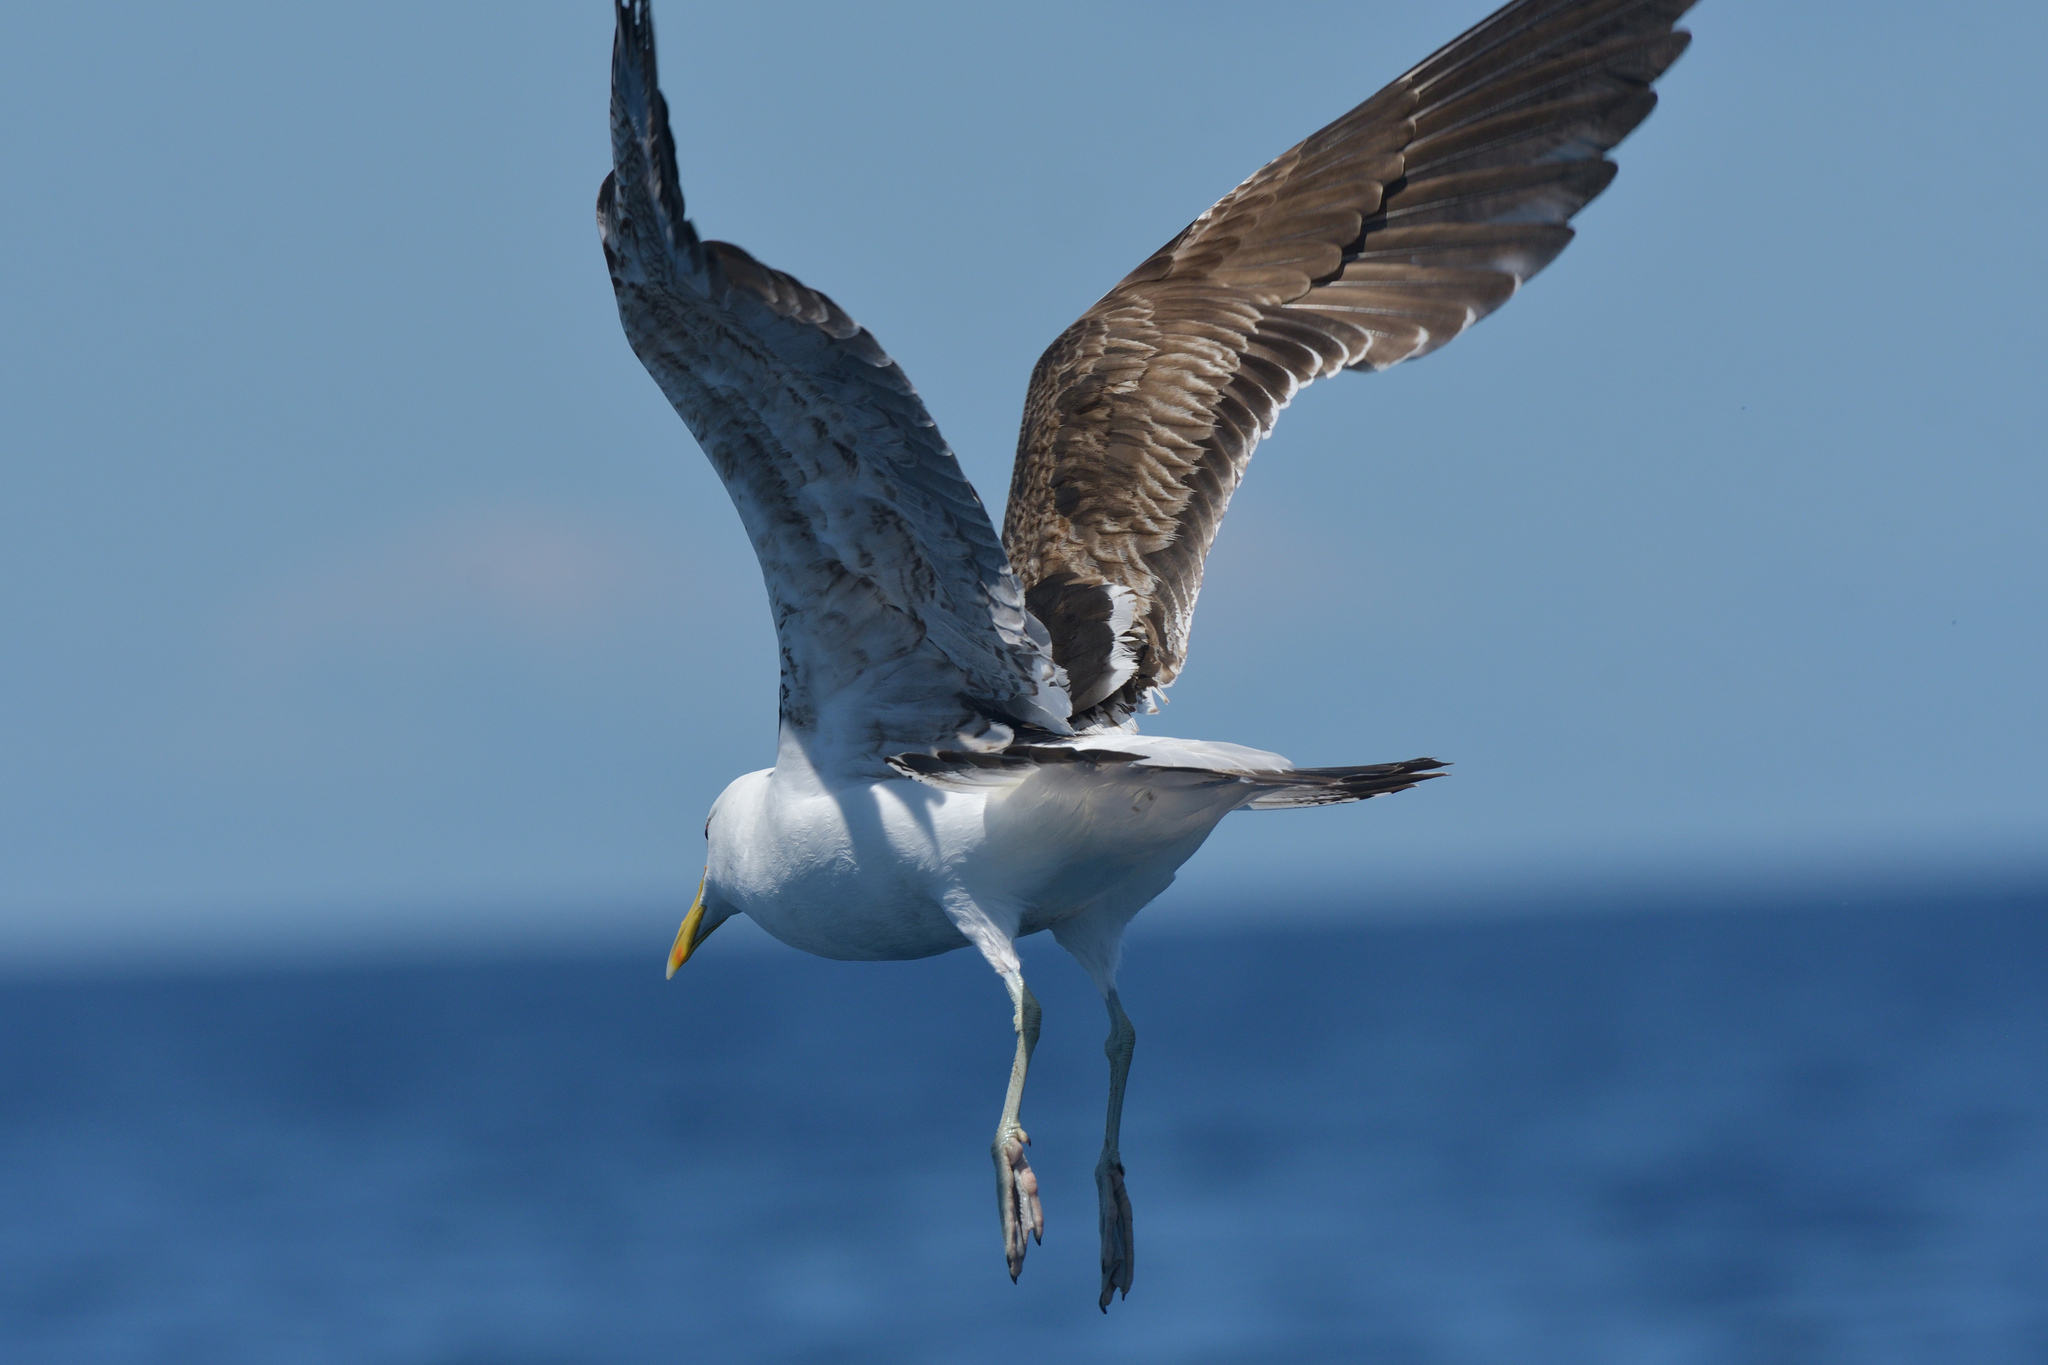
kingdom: Animalia
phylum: Chordata
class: Aves
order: Charadriiformes
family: Laridae
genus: Larus
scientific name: Larus dominicanus
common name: Kelp gull
